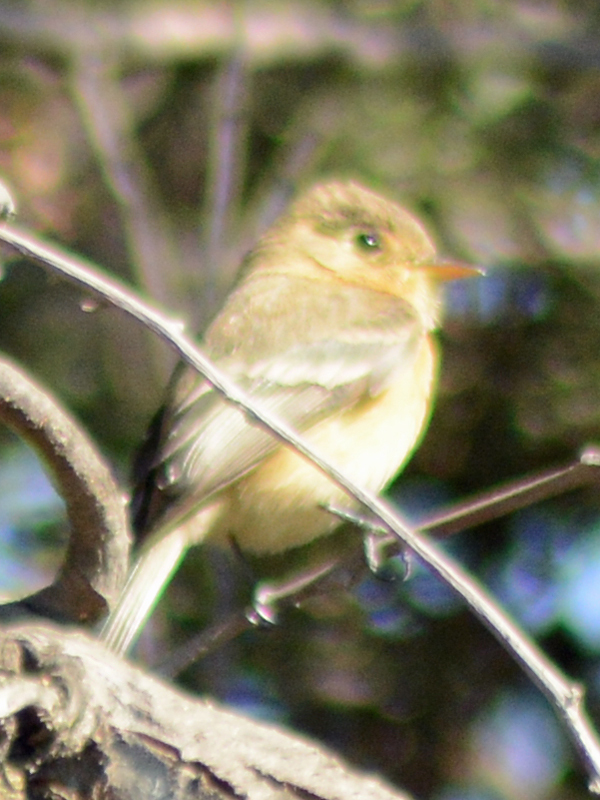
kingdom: Animalia
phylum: Chordata
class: Aves
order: Passeriformes
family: Tyrannidae
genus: Empidonax
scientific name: Empidonax fulvifrons
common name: Buff-breasted flycatcher
